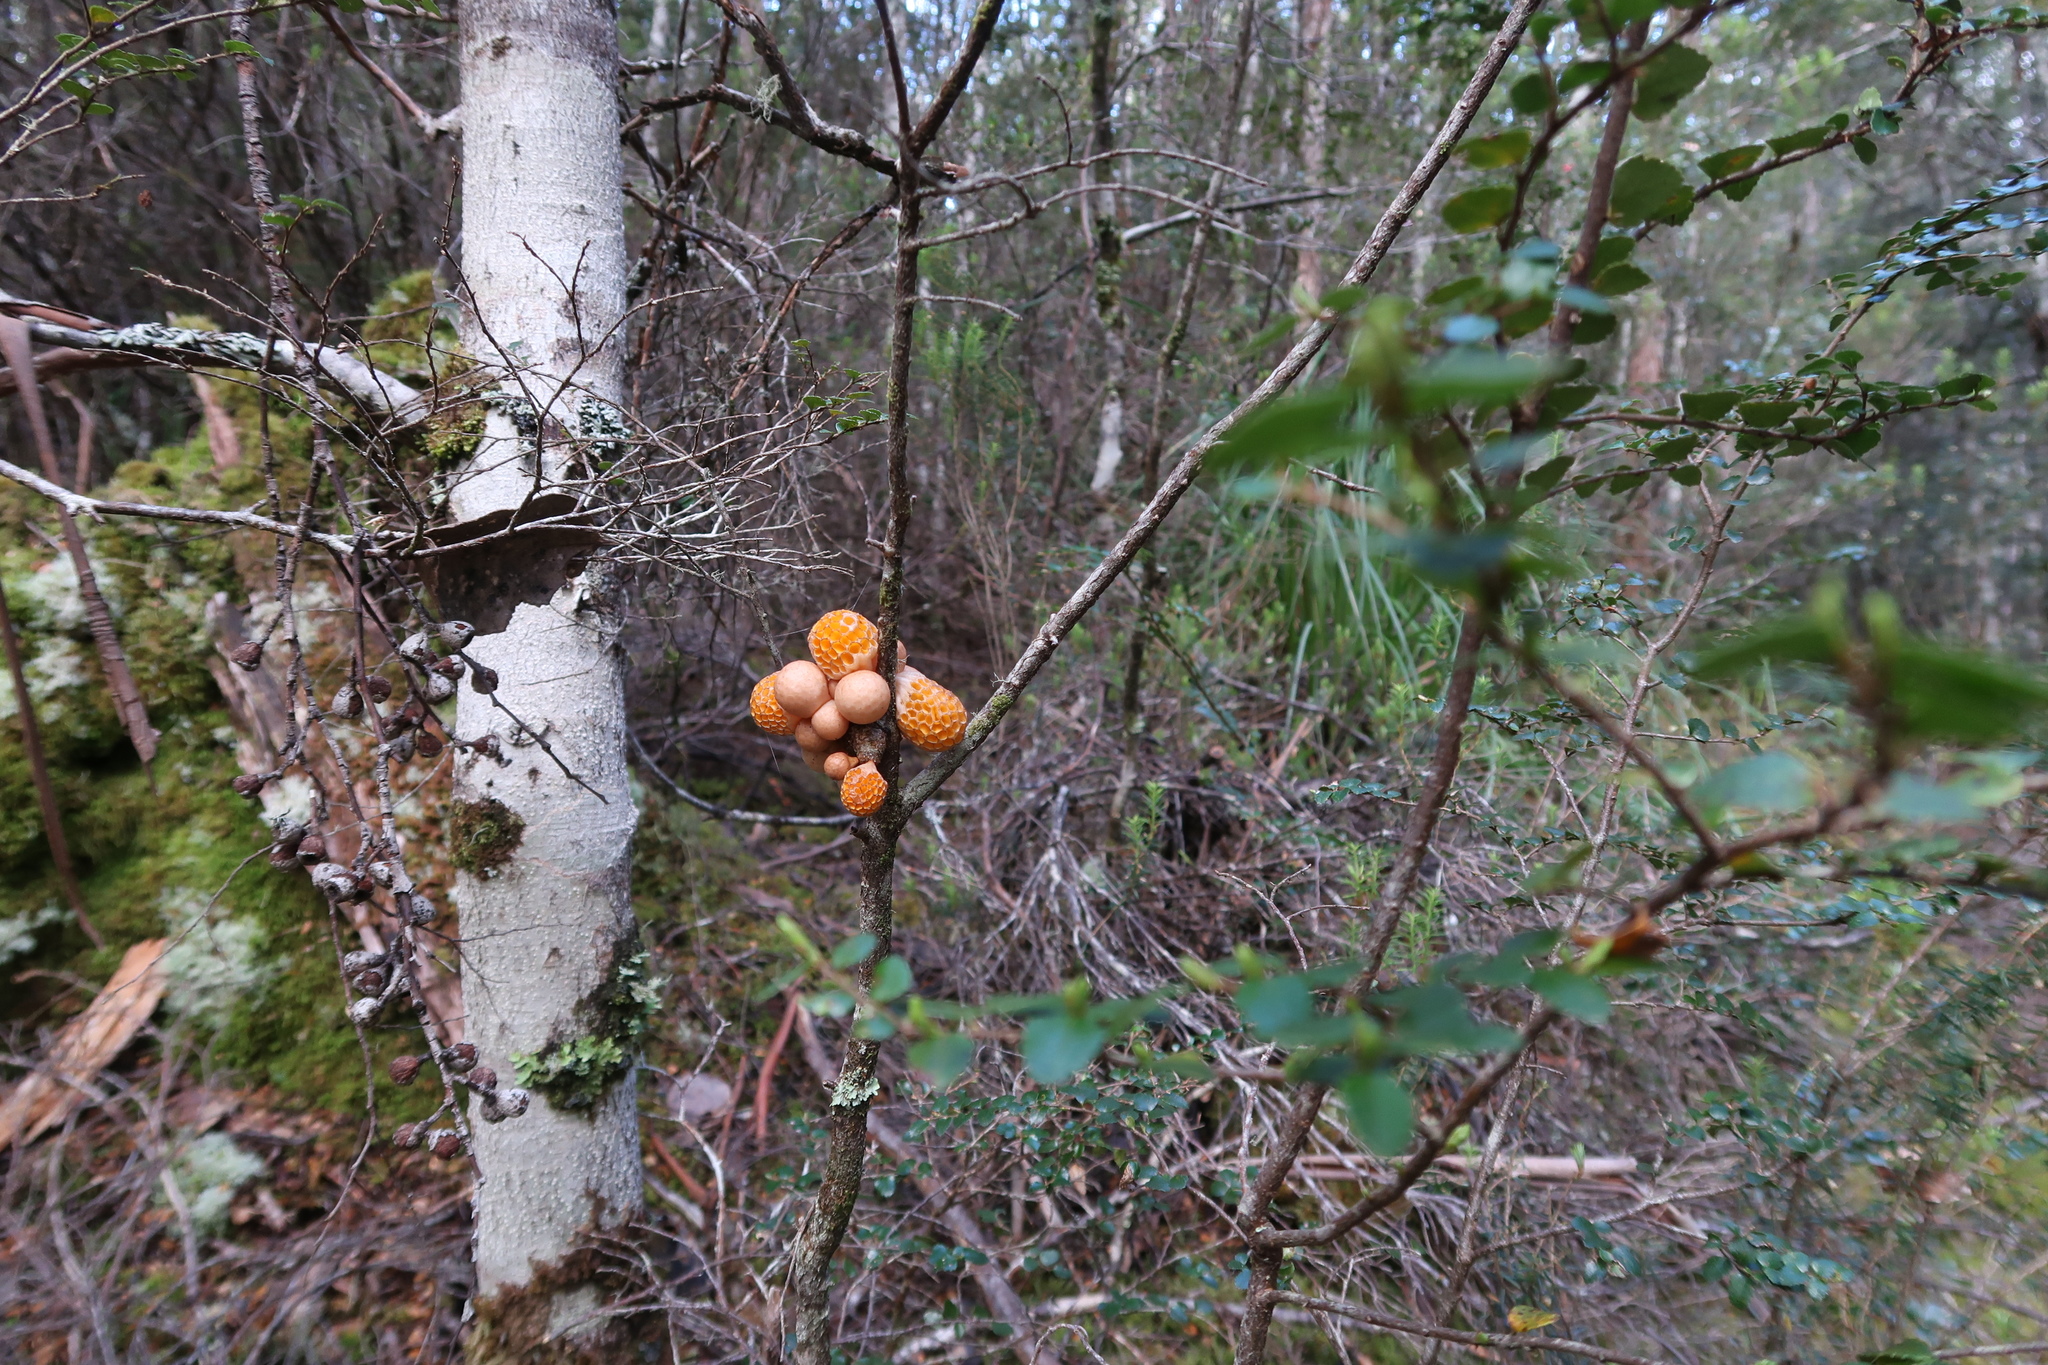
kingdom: Fungi
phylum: Ascomycota
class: Leotiomycetes
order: Cyttariales
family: Cyttariaceae
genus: Cyttaria
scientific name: Cyttaria gunnii
